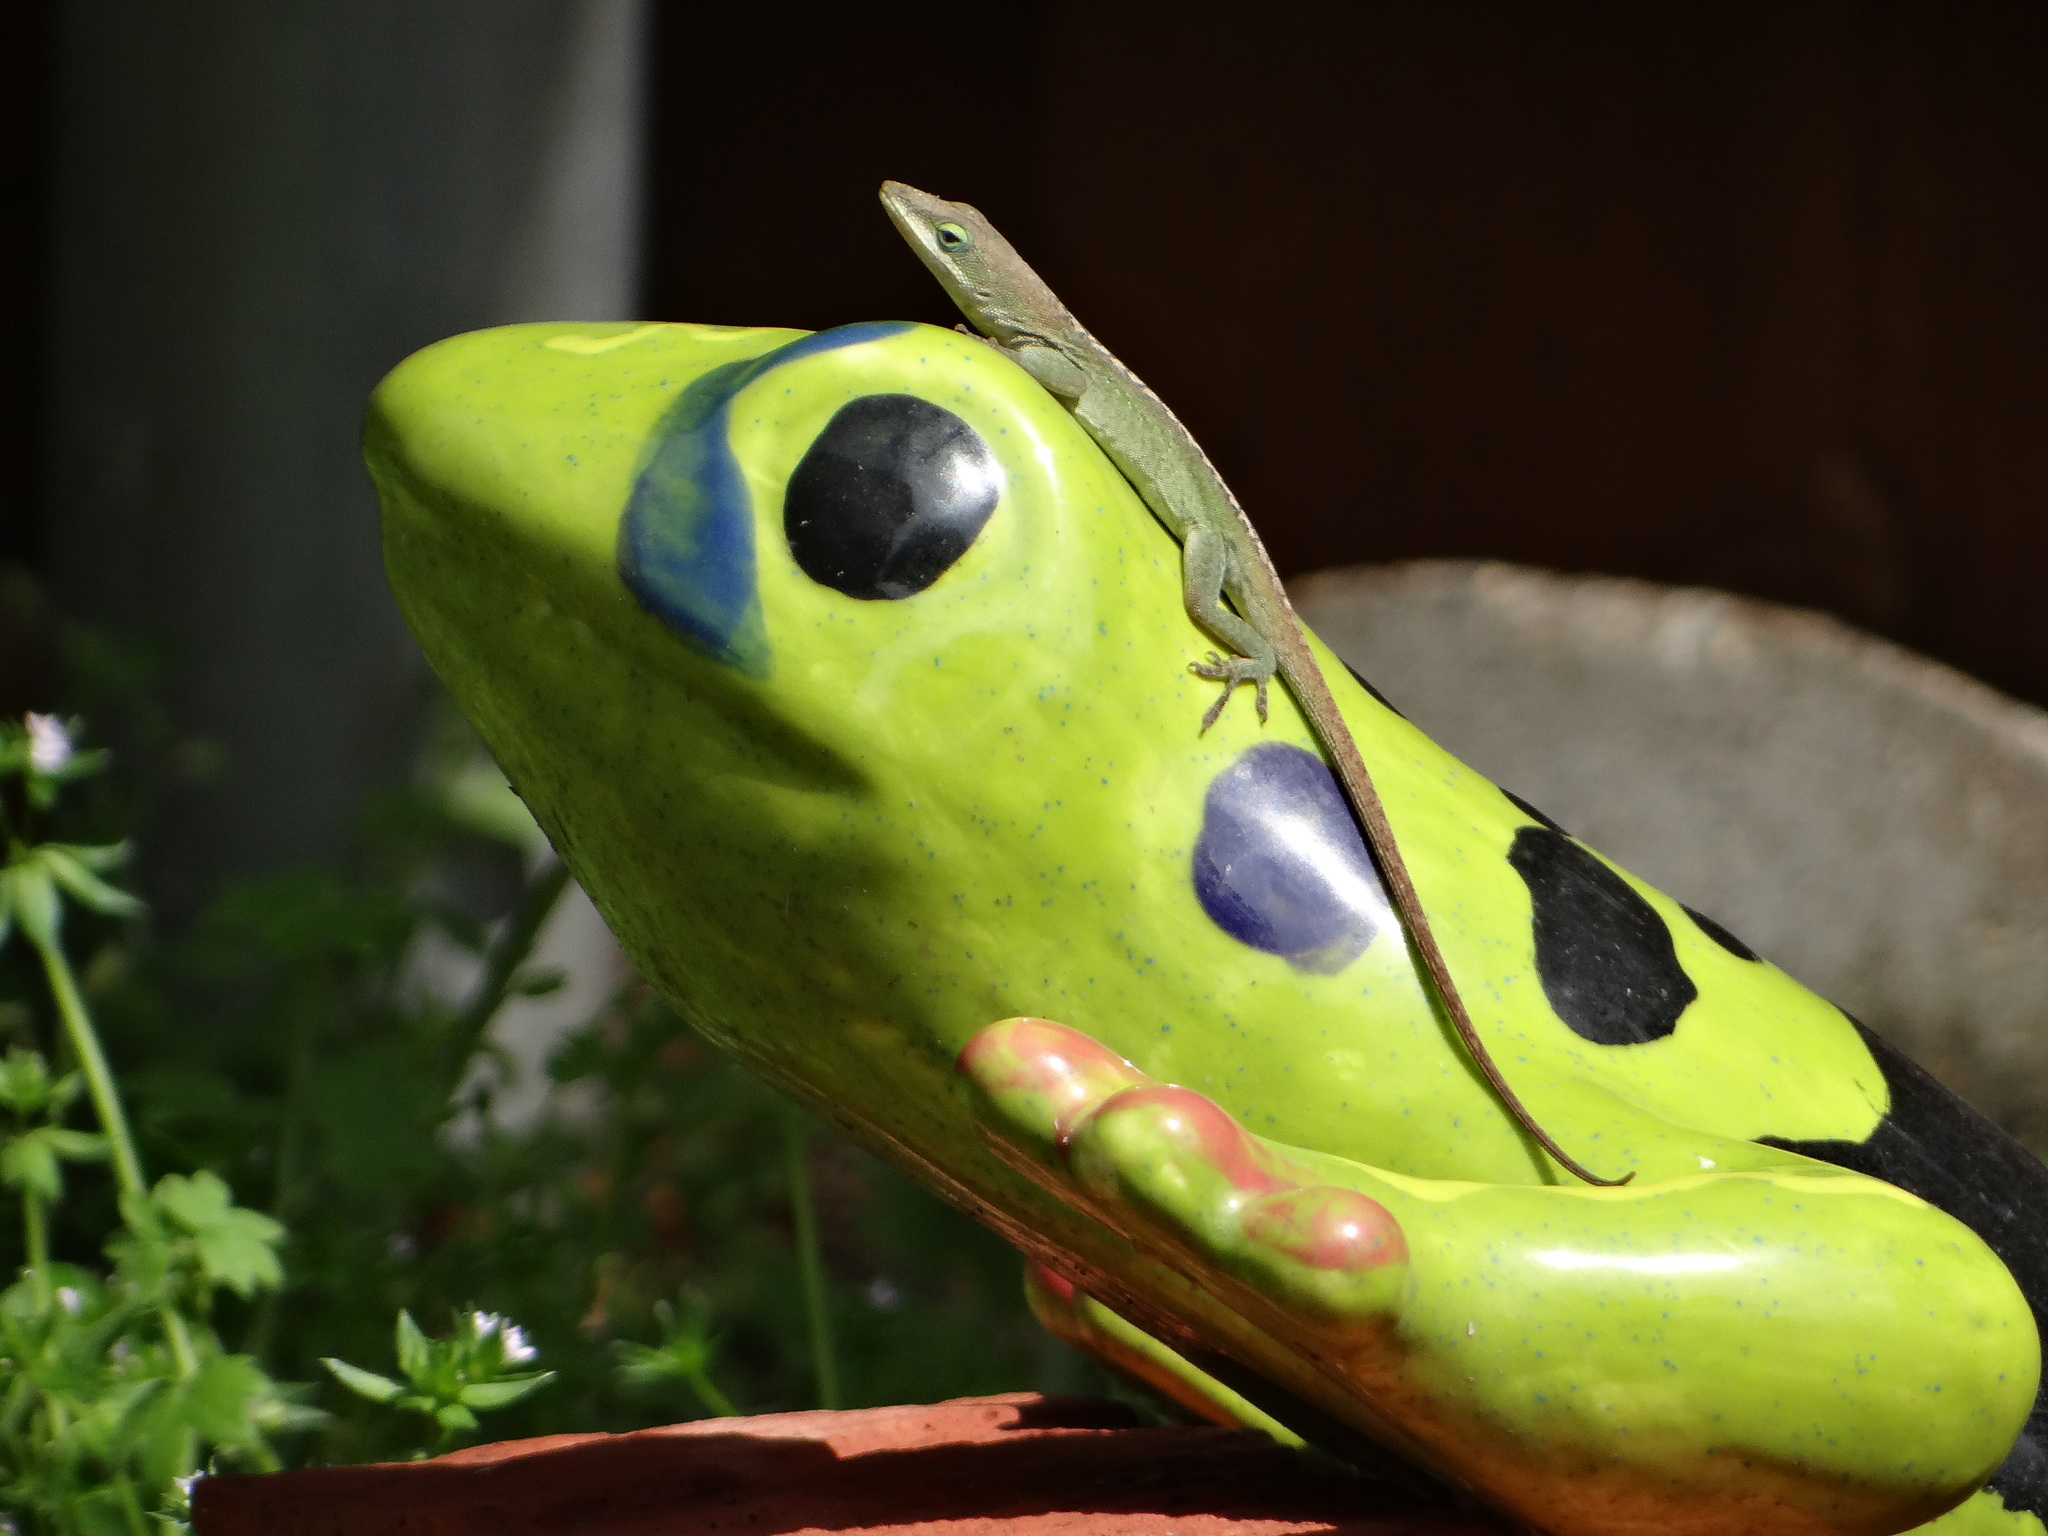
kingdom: Animalia
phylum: Chordata
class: Squamata
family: Dactyloidae
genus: Anolis
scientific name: Anolis carolinensis
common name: Green anole
